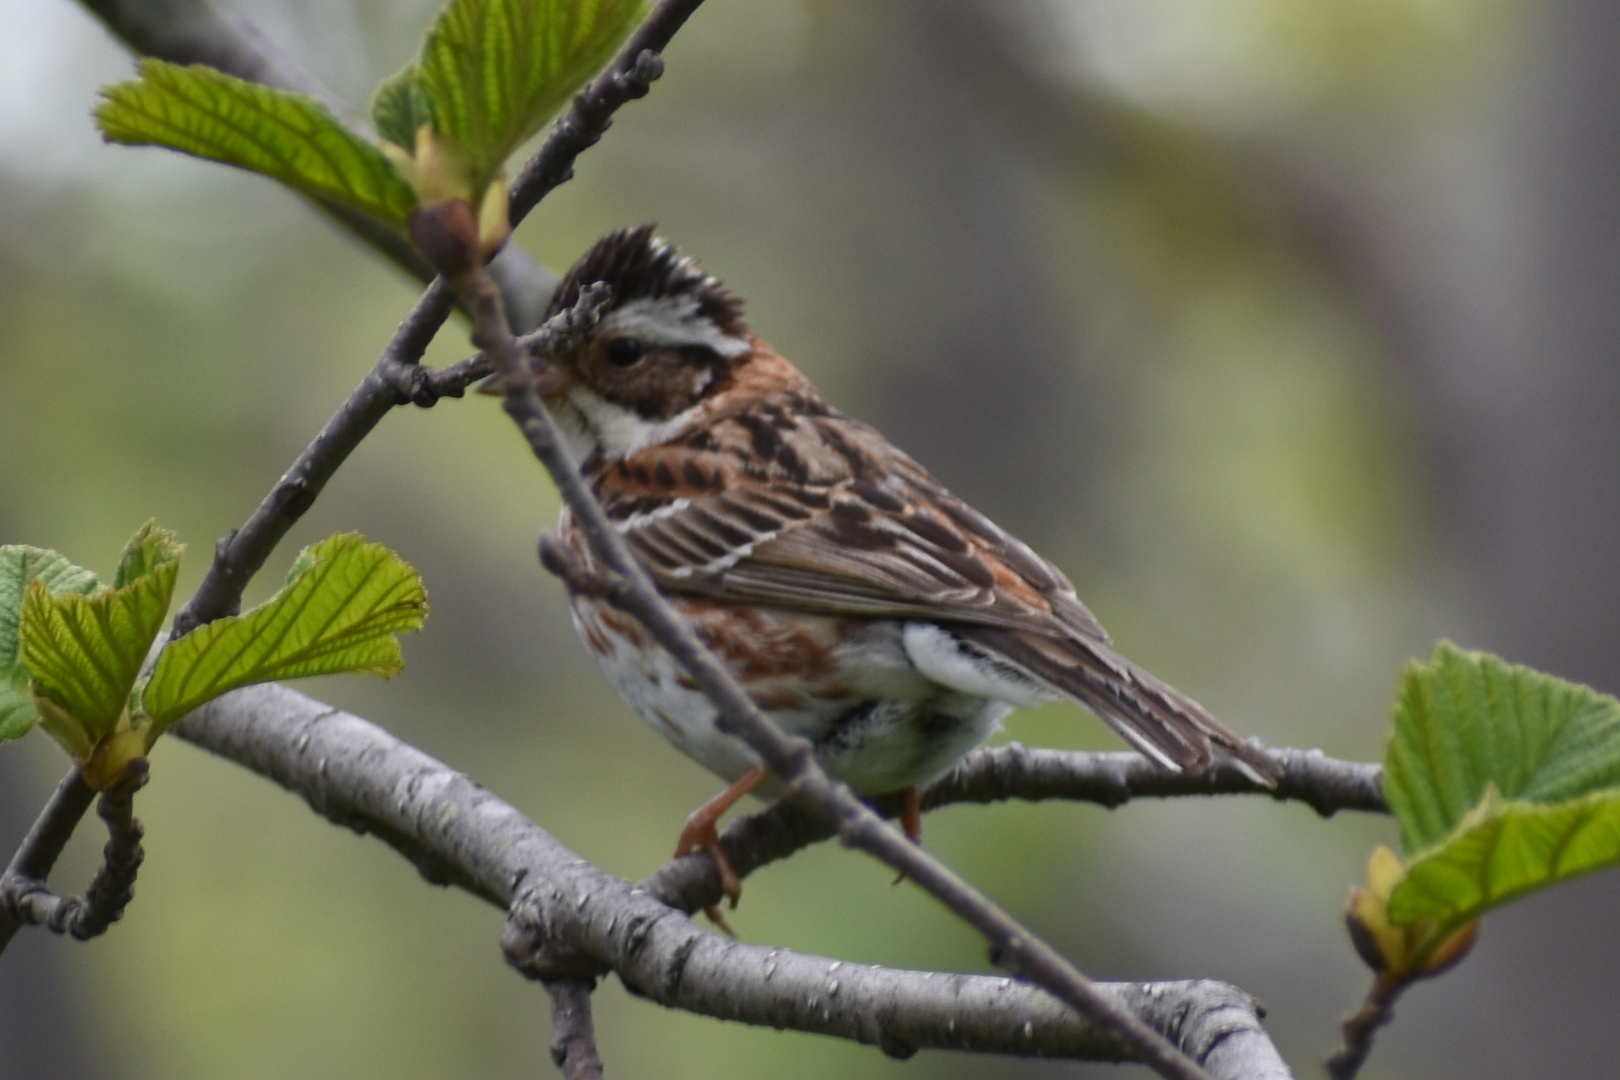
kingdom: Animalia
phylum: Chordata
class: Aves
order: Passeriformes
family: Emberizidae
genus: Emberiza
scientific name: Emberiza rustica
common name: Rustic bunting
